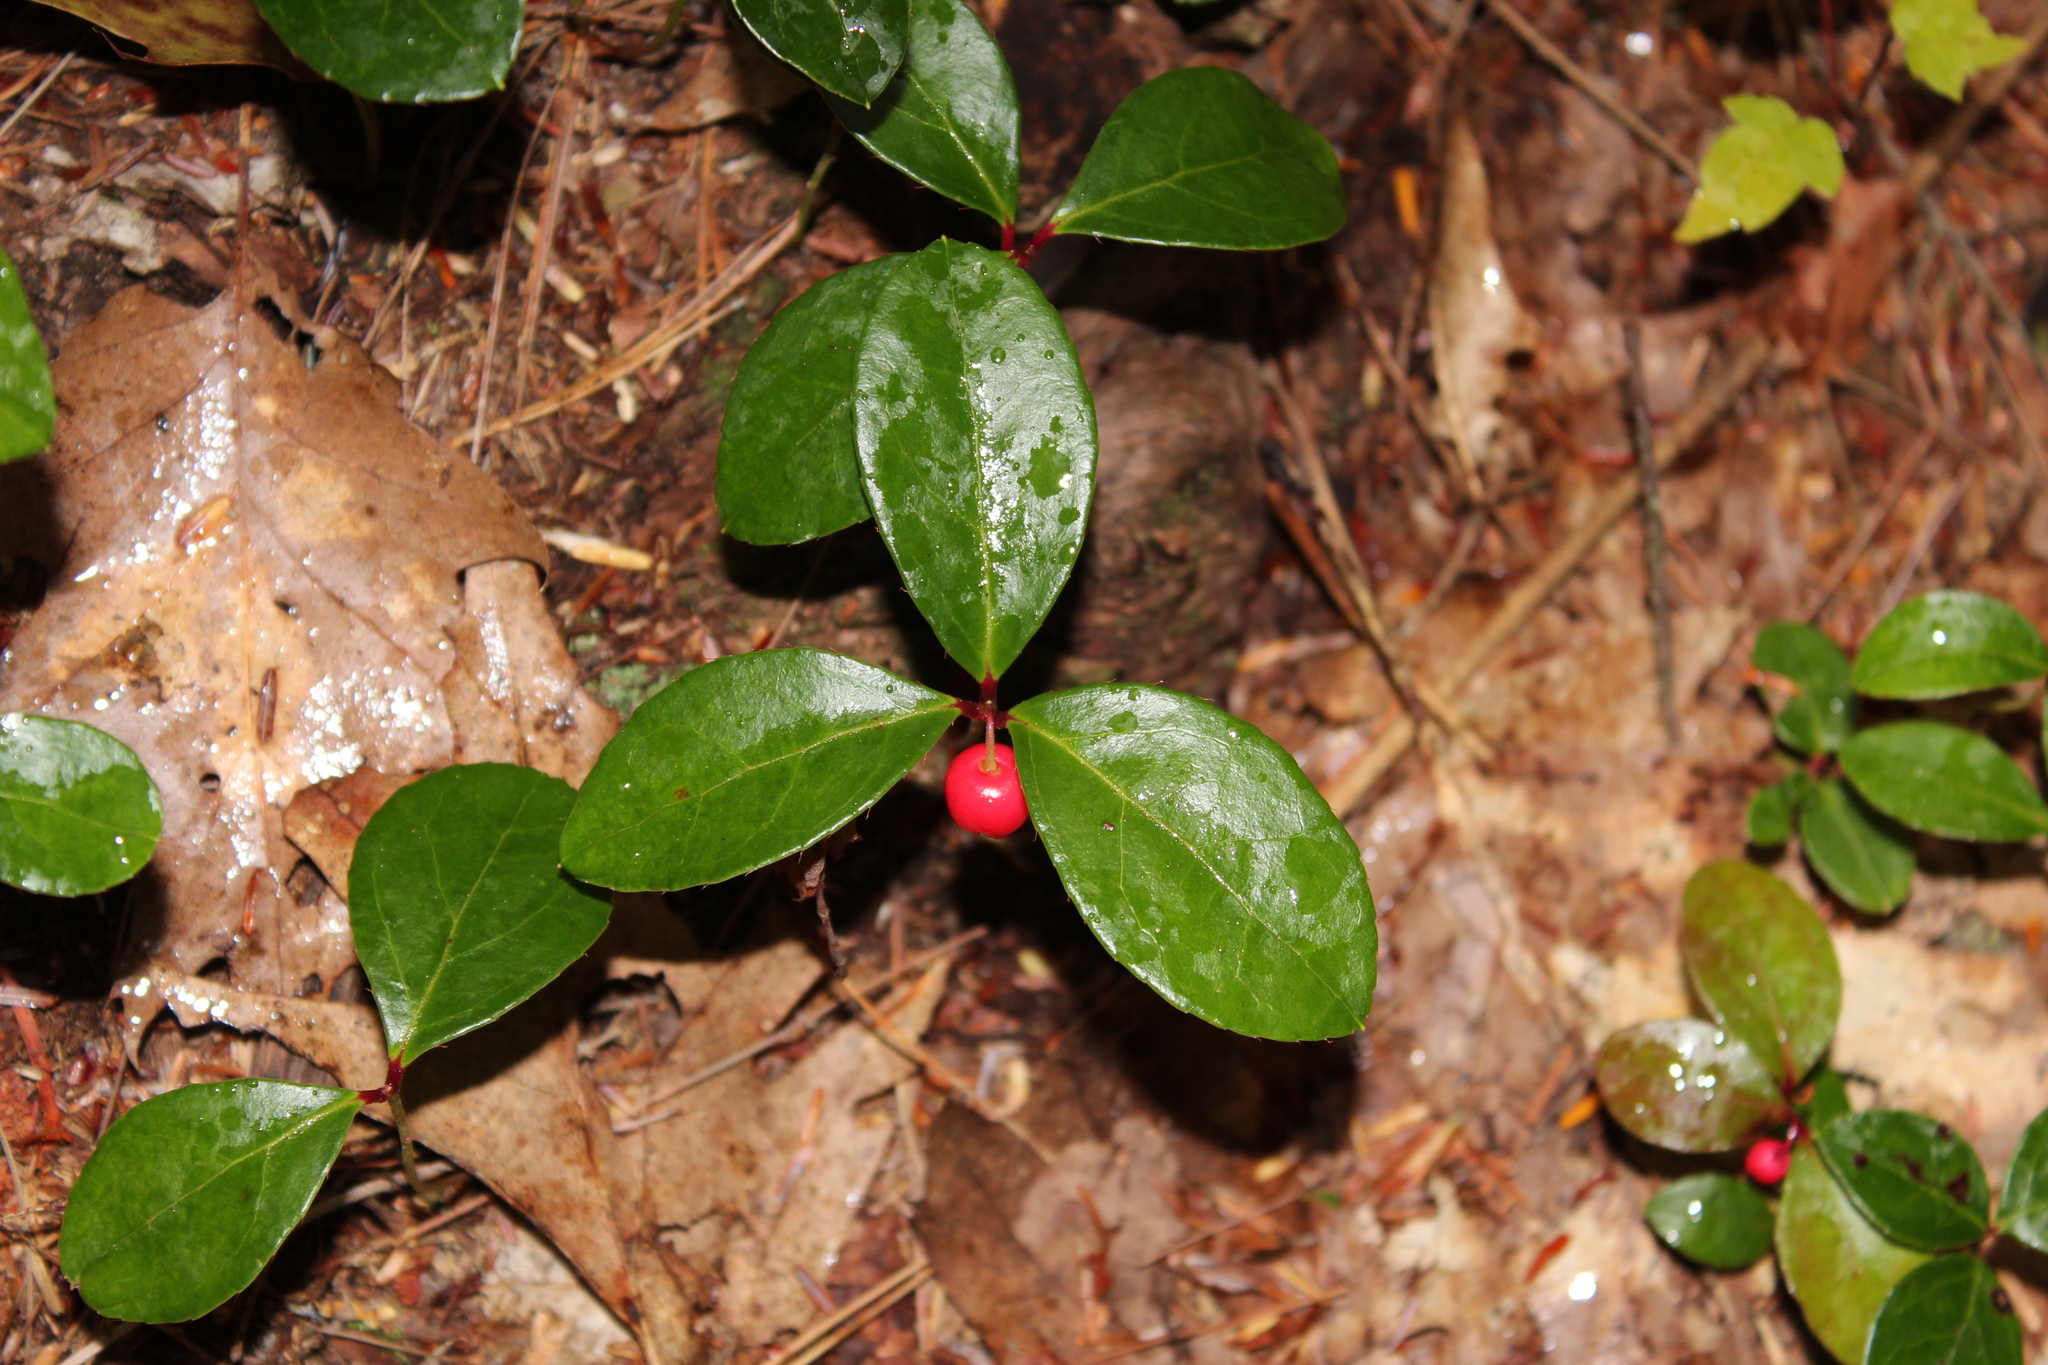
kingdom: Plantae
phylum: Tracheophyta
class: Magnoliopsida
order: Ericales
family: Ericaceae
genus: Gaultheria
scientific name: Gaultheria procumbens
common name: Checkerberry
